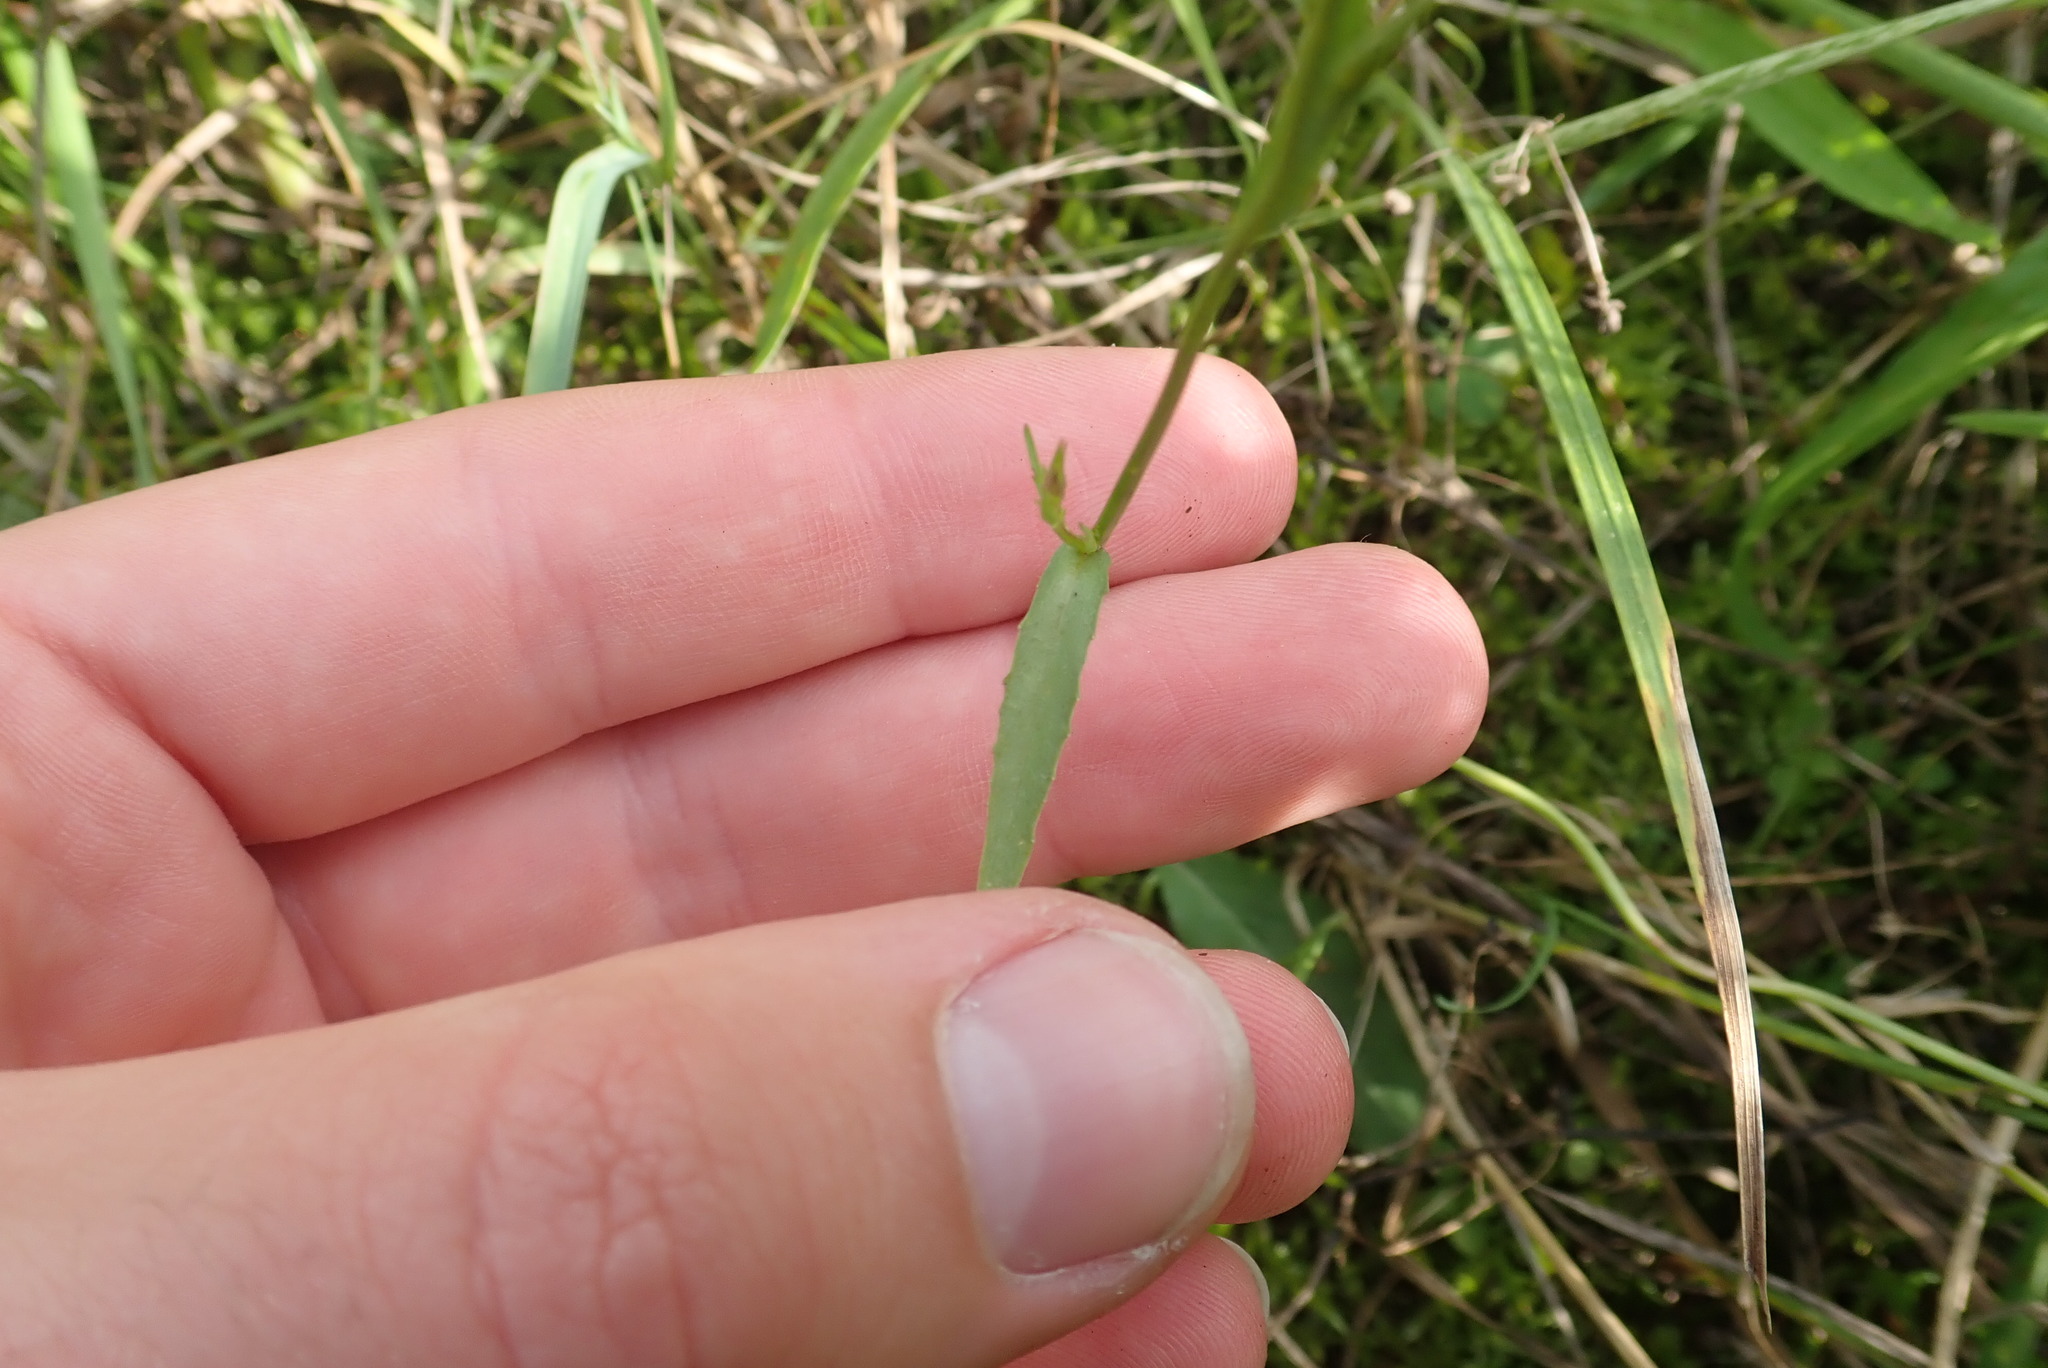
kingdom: Plantae
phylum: Tracheophyta
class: Magnoliopsida
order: Asterales
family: Campanulaceae
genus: Campanula
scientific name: Campanula rapunculus
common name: Rampion bellflower
